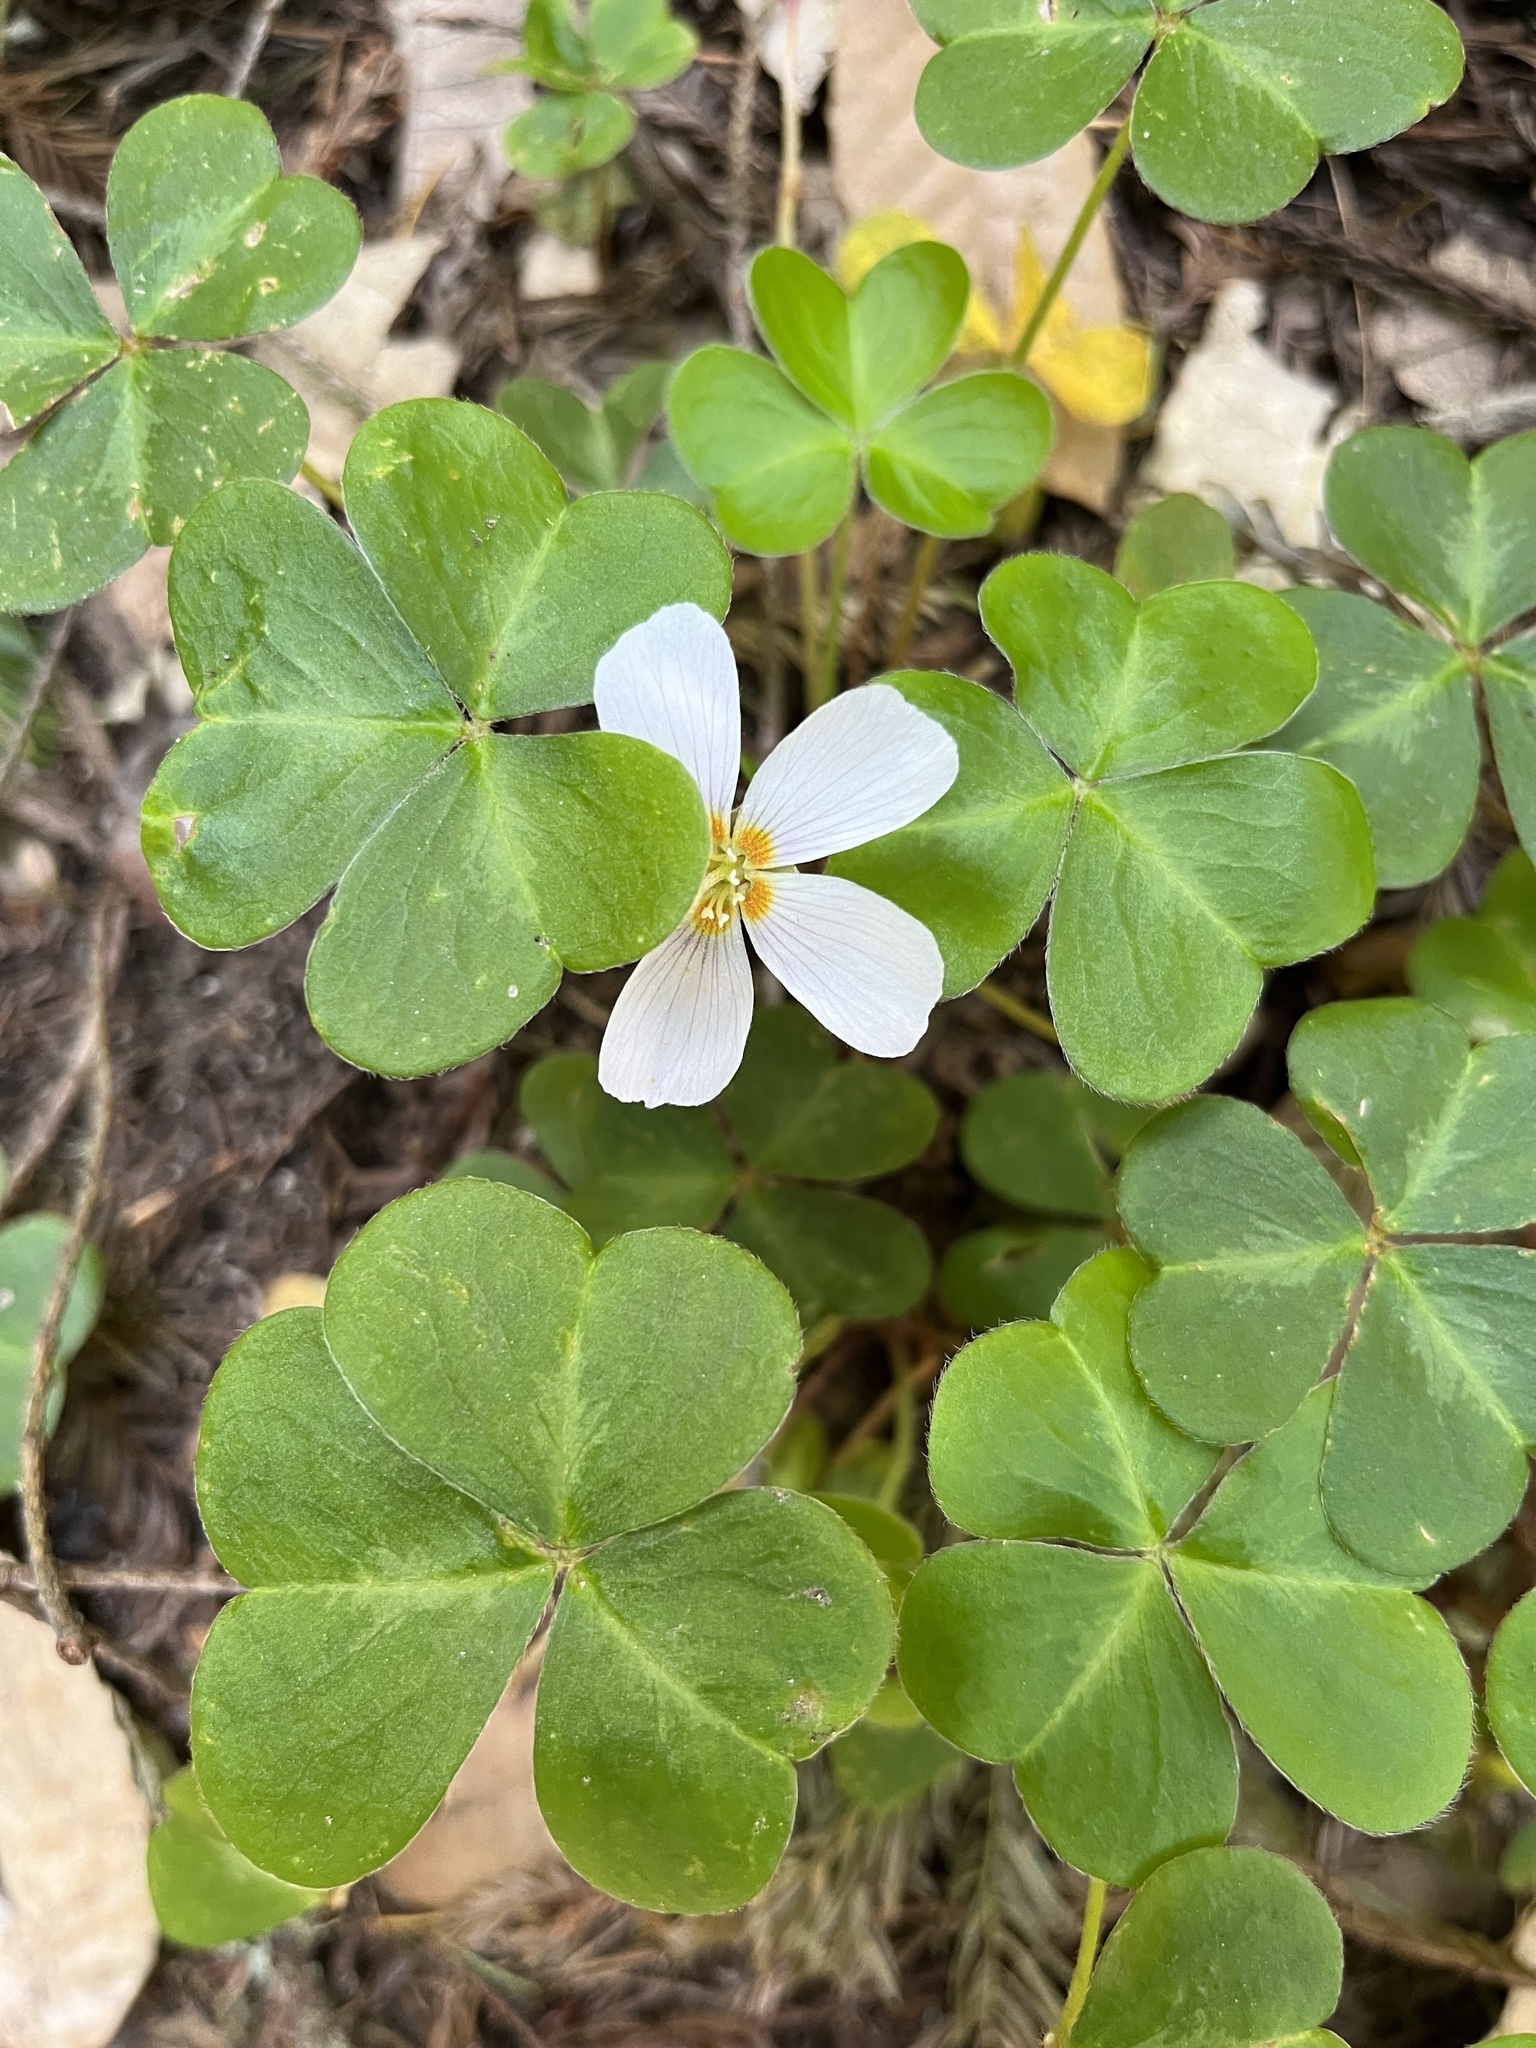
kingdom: Plantae
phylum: Tracheophyta
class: Magnoliopsida
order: Oxalidales
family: Oxalidaceae
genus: Oxalis
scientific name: Oxalis oregana
